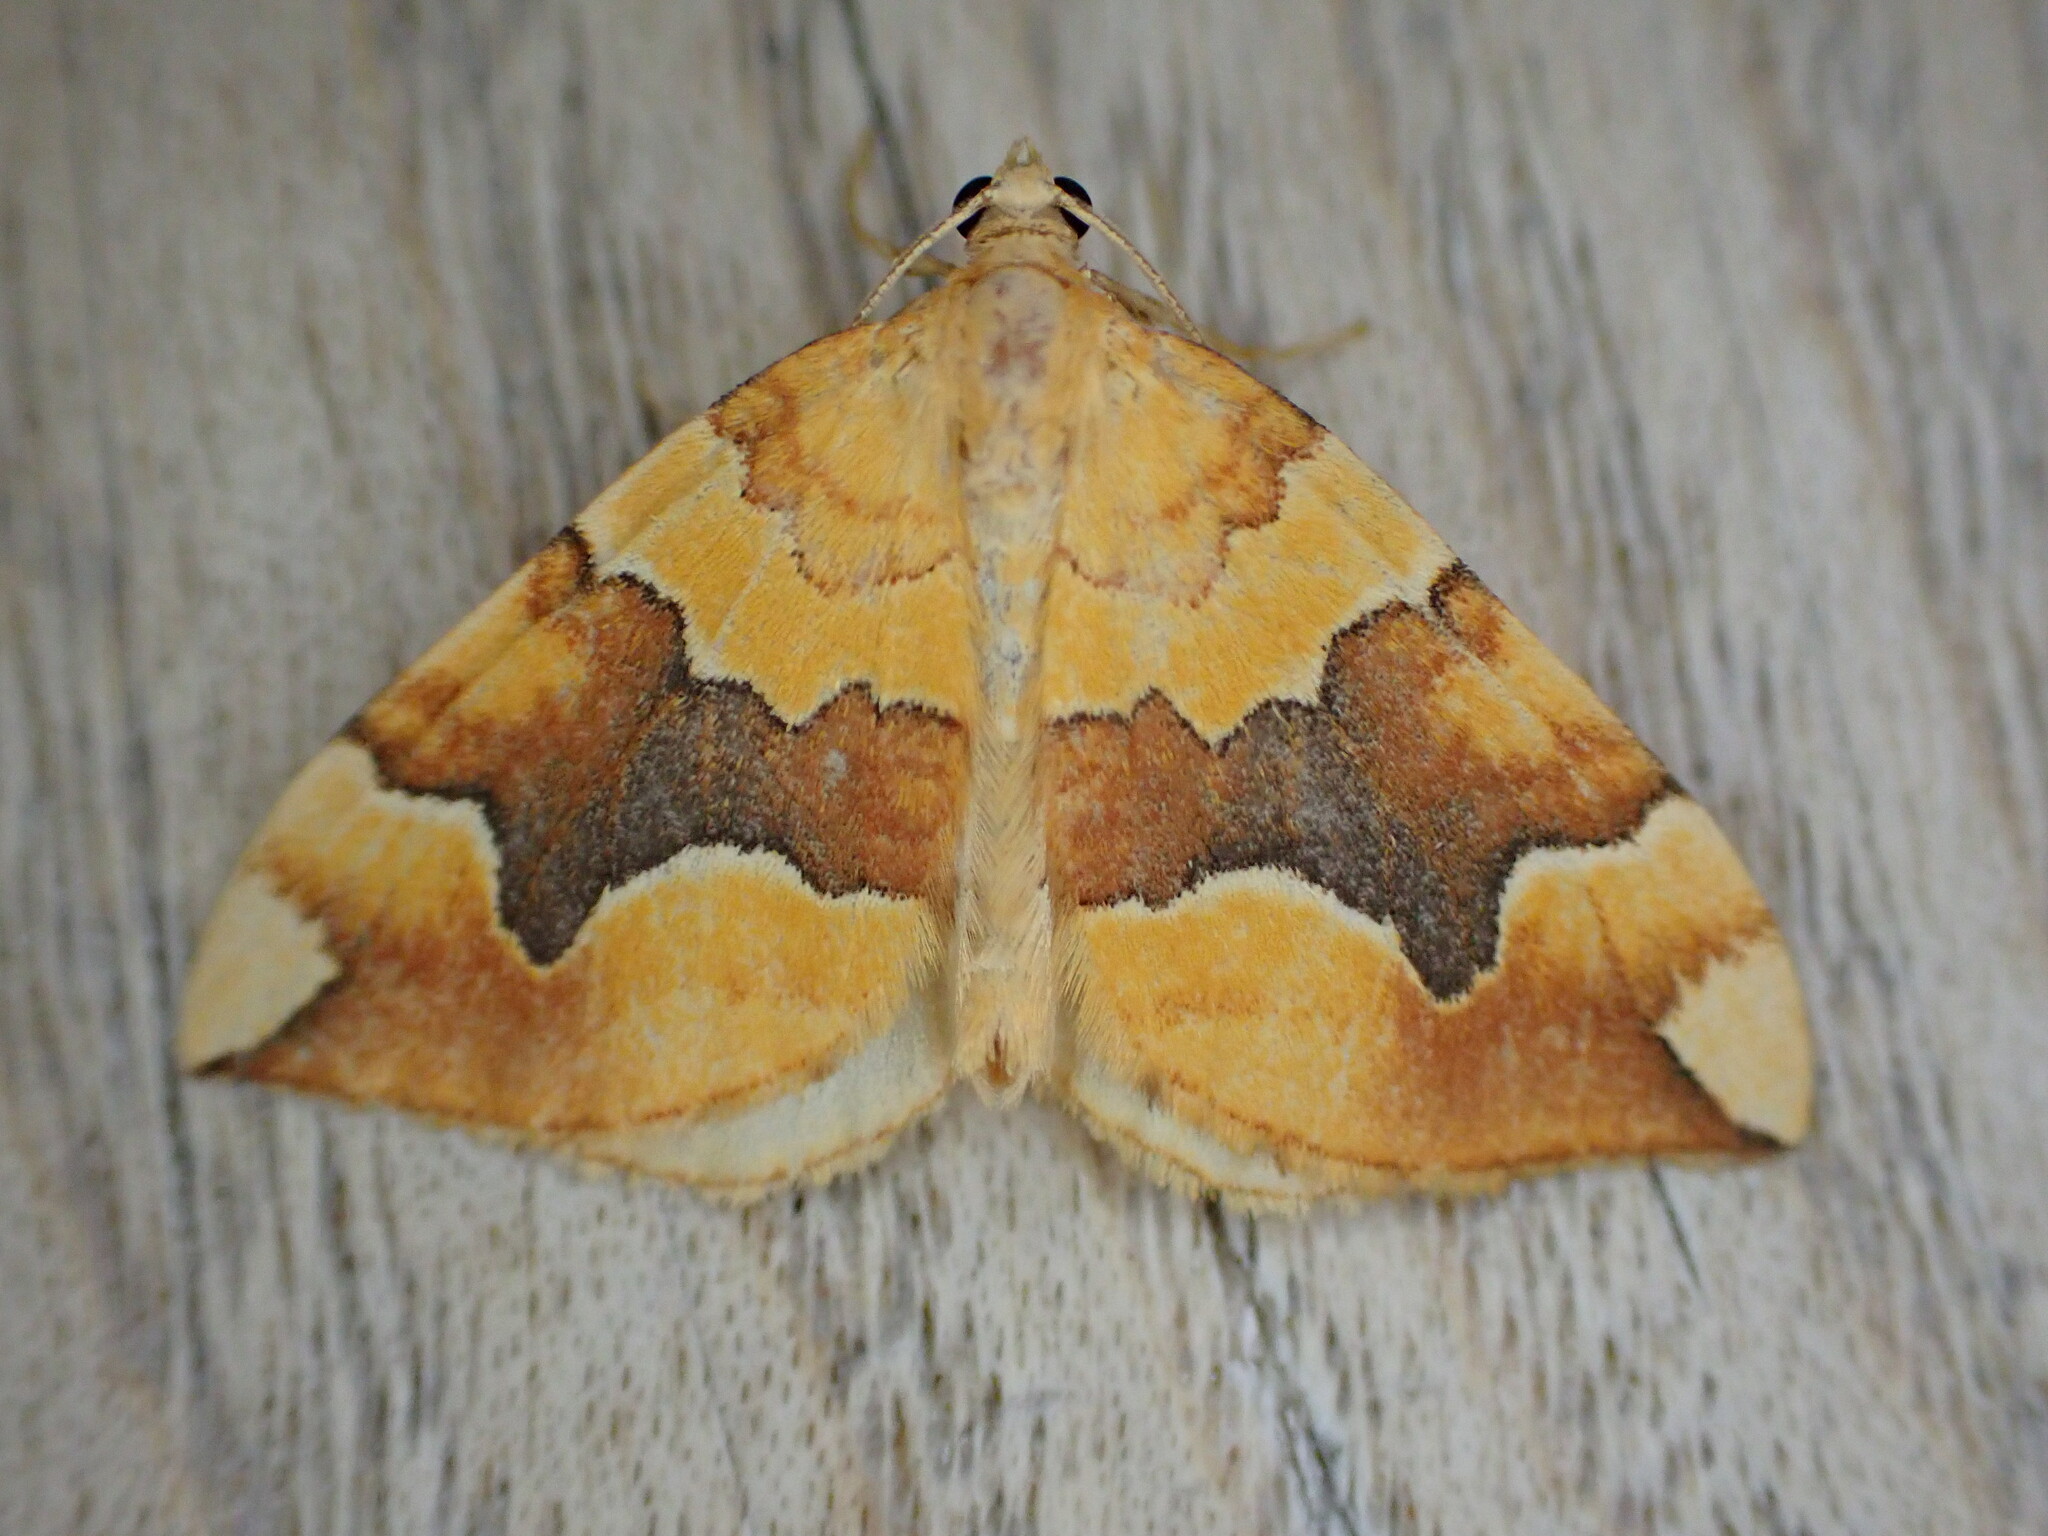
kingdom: Animalia
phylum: Arthropoda
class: Insecta
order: Lepidoptera
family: Geometridae
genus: Cidaria
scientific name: Cidaria fulvata
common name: Barred yellow
